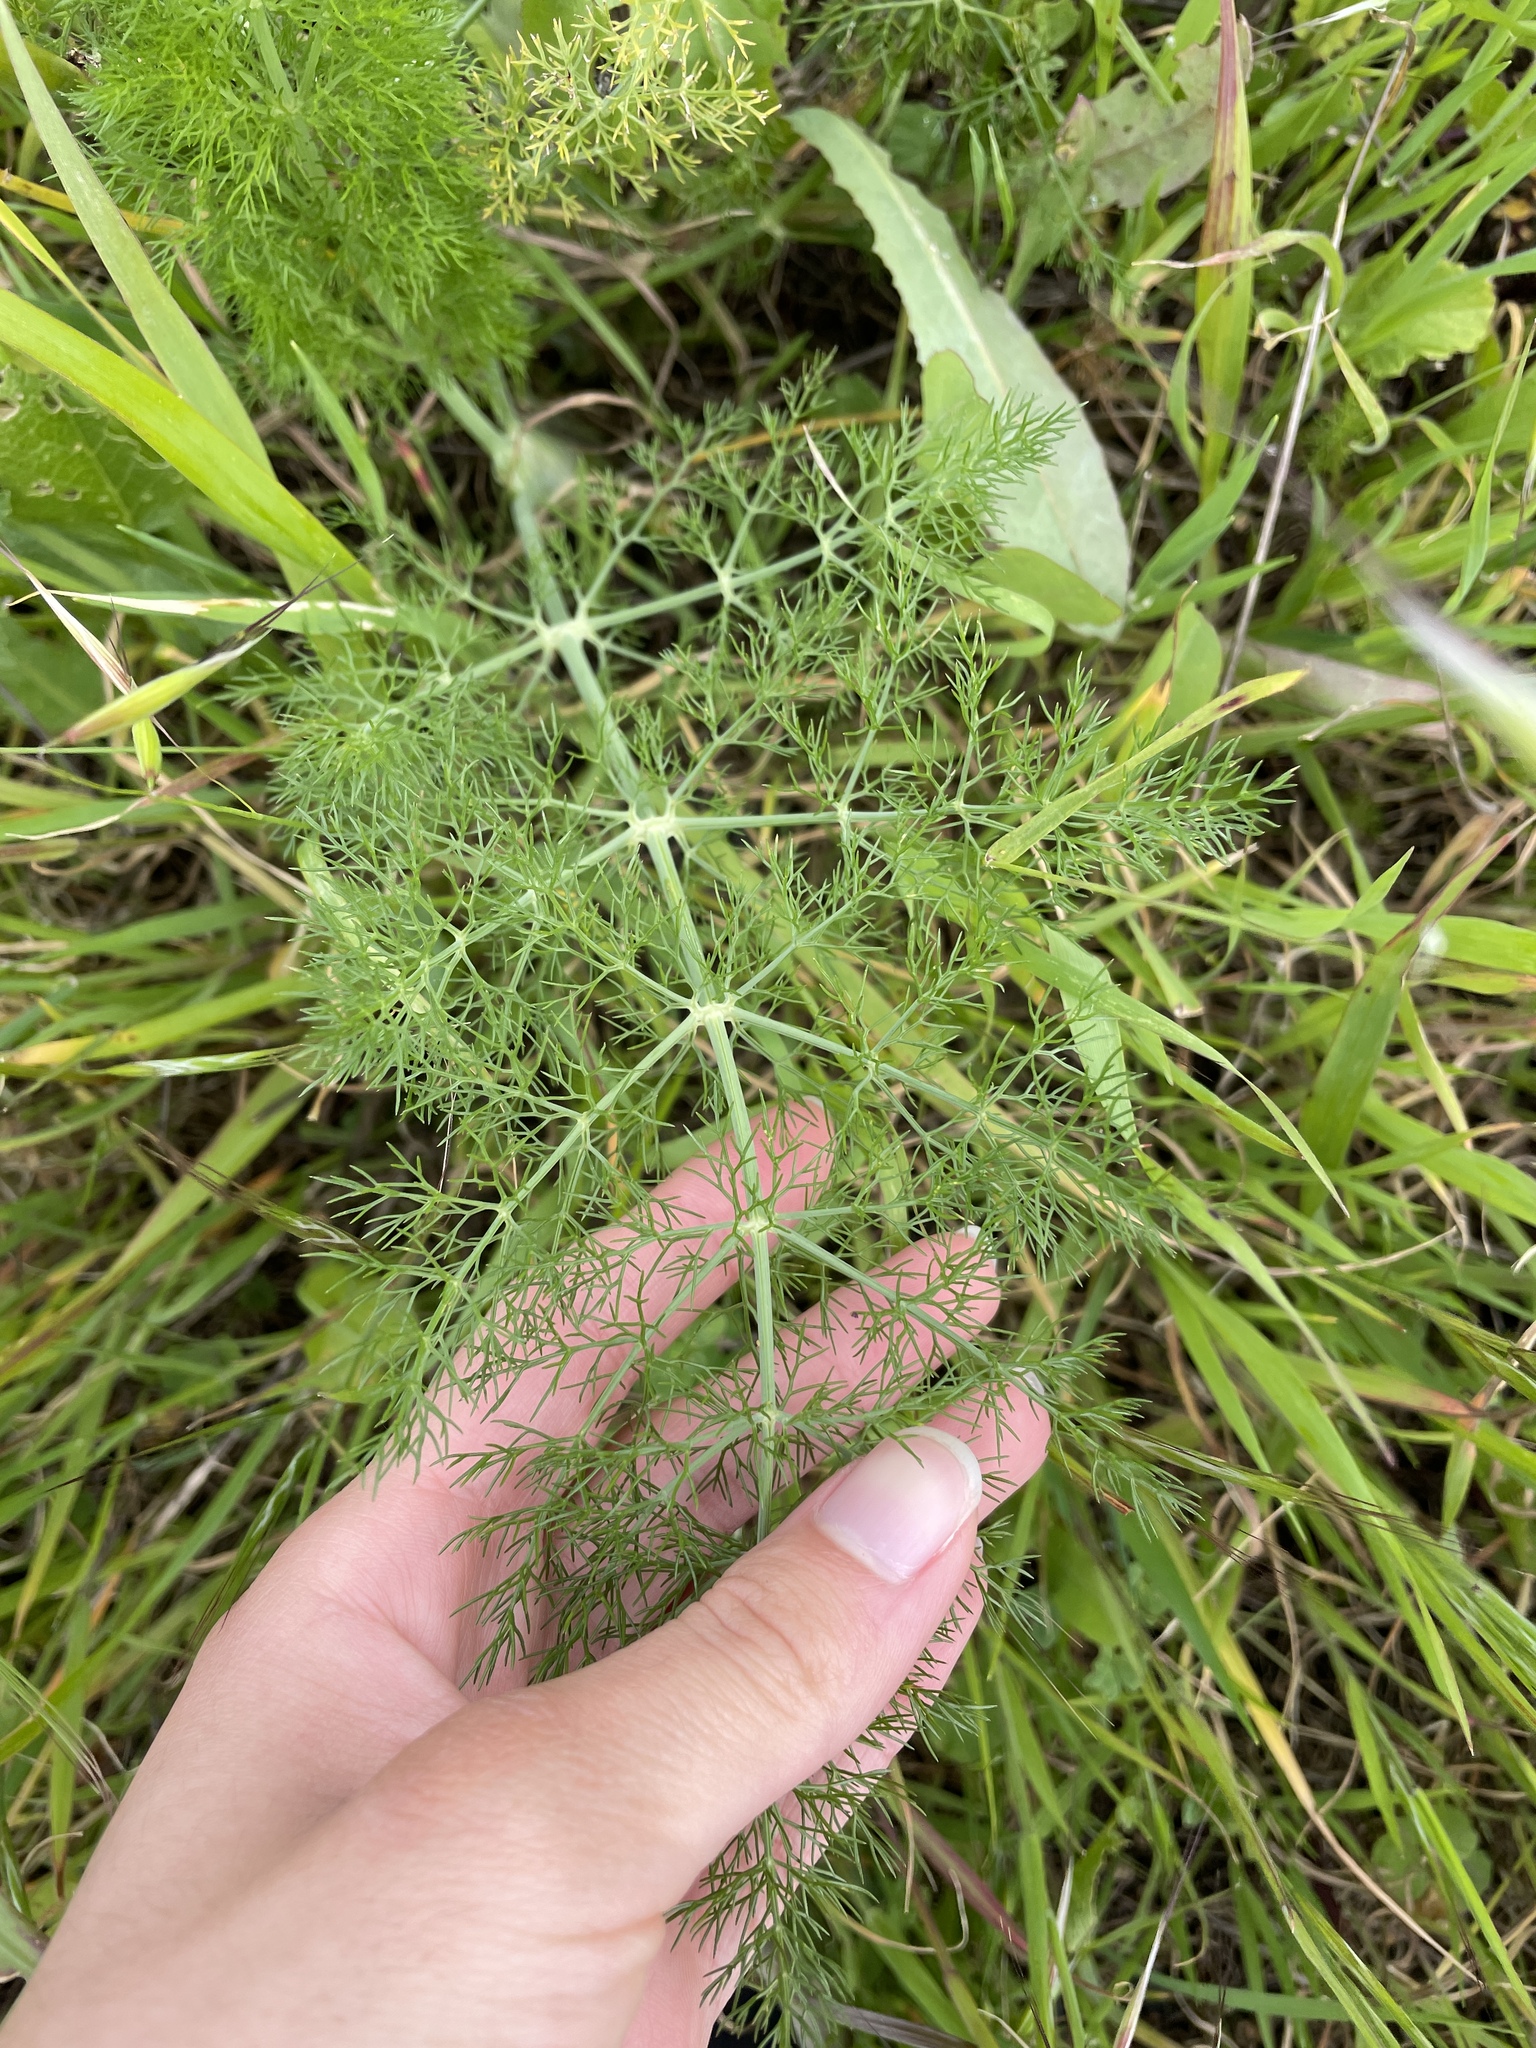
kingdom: Plantae
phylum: Tracheophyta
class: Magnoliopsida
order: Apiales
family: Apiaceae
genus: Foeniculum
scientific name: Foeniculum vulgare
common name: Fennel
